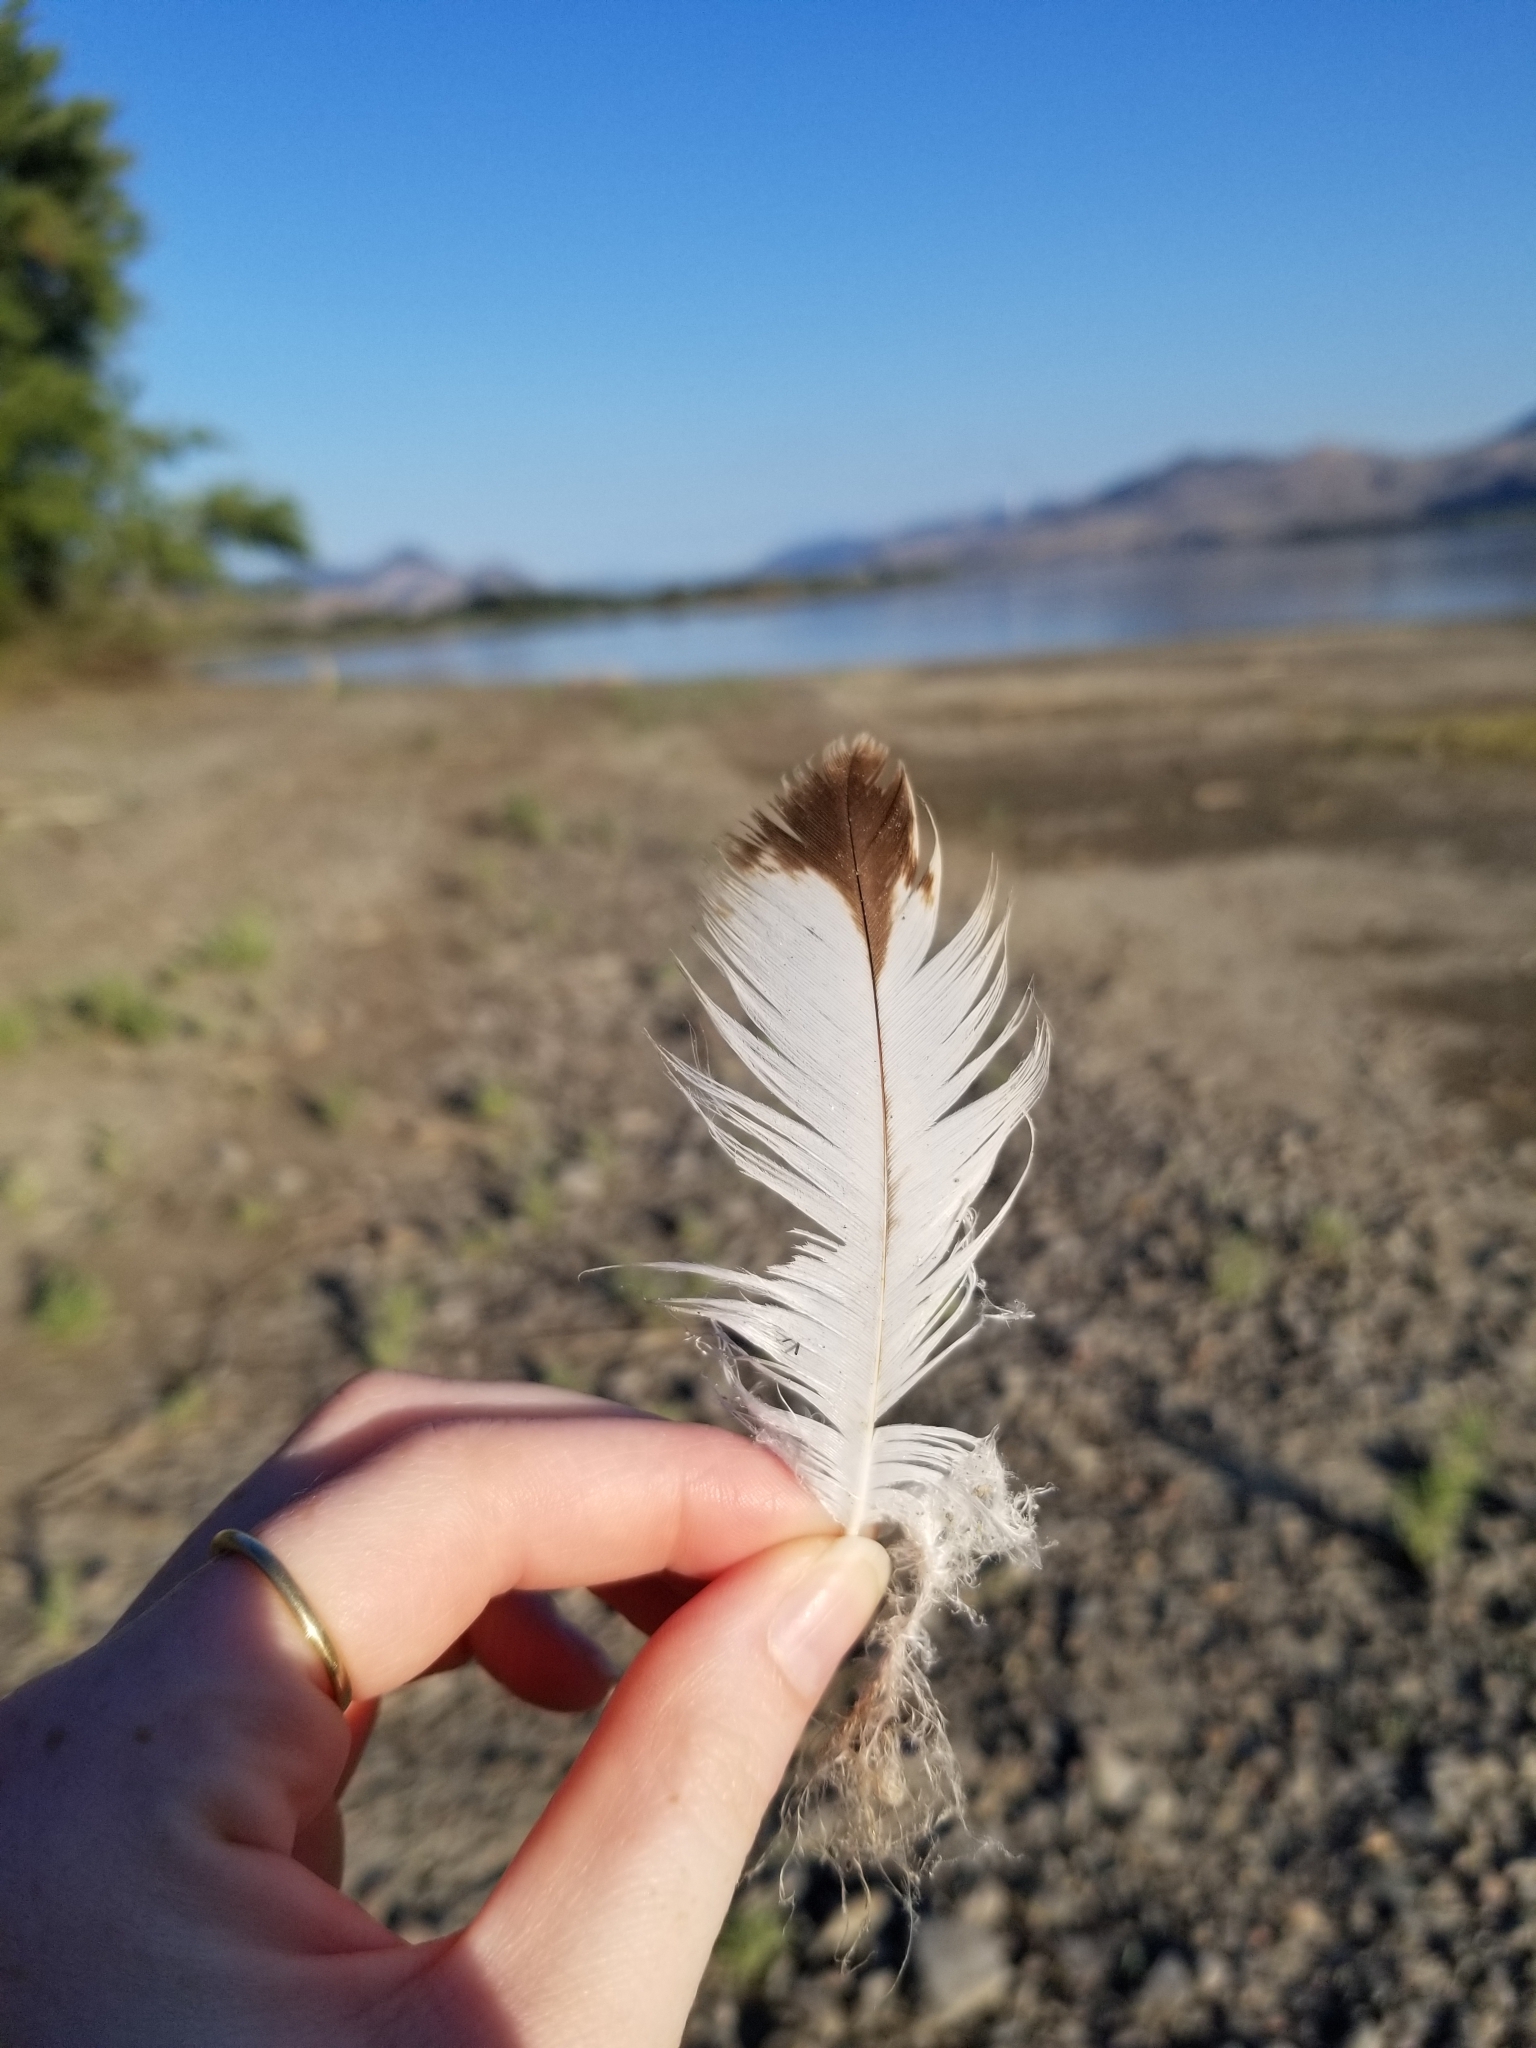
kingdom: Animalia
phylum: Chordata
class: Aves
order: Accipitriformes
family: Accipitridae
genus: Haliaeetus
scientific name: Haliaeetus leucocephalus
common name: Bald eagle
